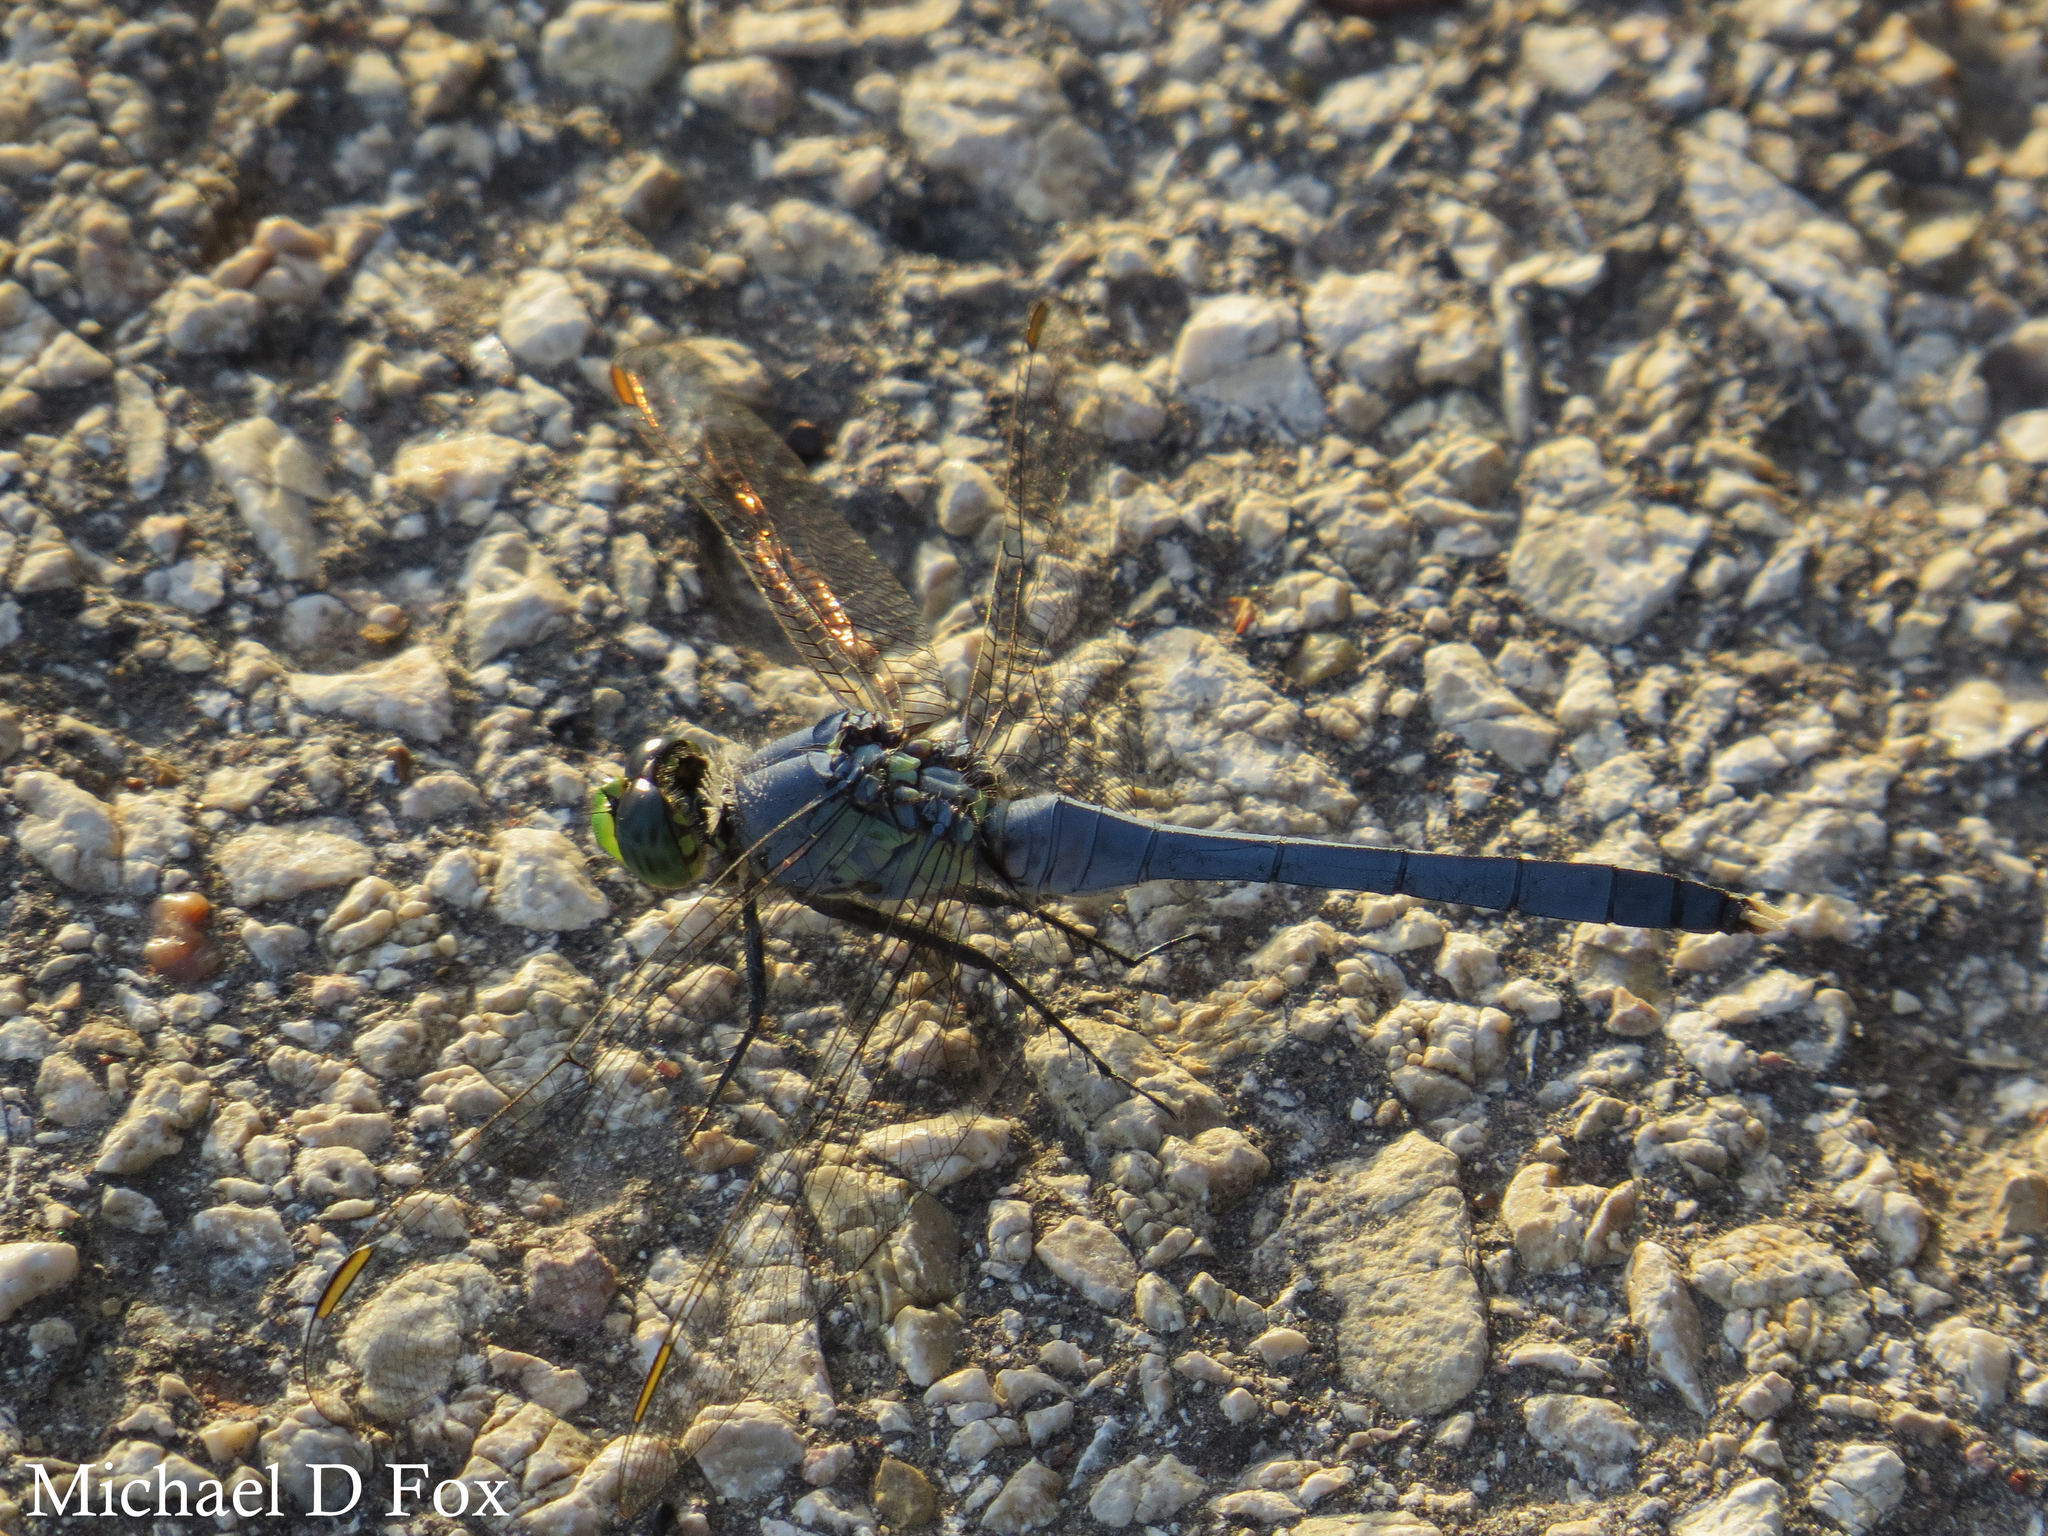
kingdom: Animalia
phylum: Arthropoda
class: Insecta
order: Odonata
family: Libellulidae
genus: Erythemis
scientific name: Erythemis simplicicollis
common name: Eastern pondhawk
